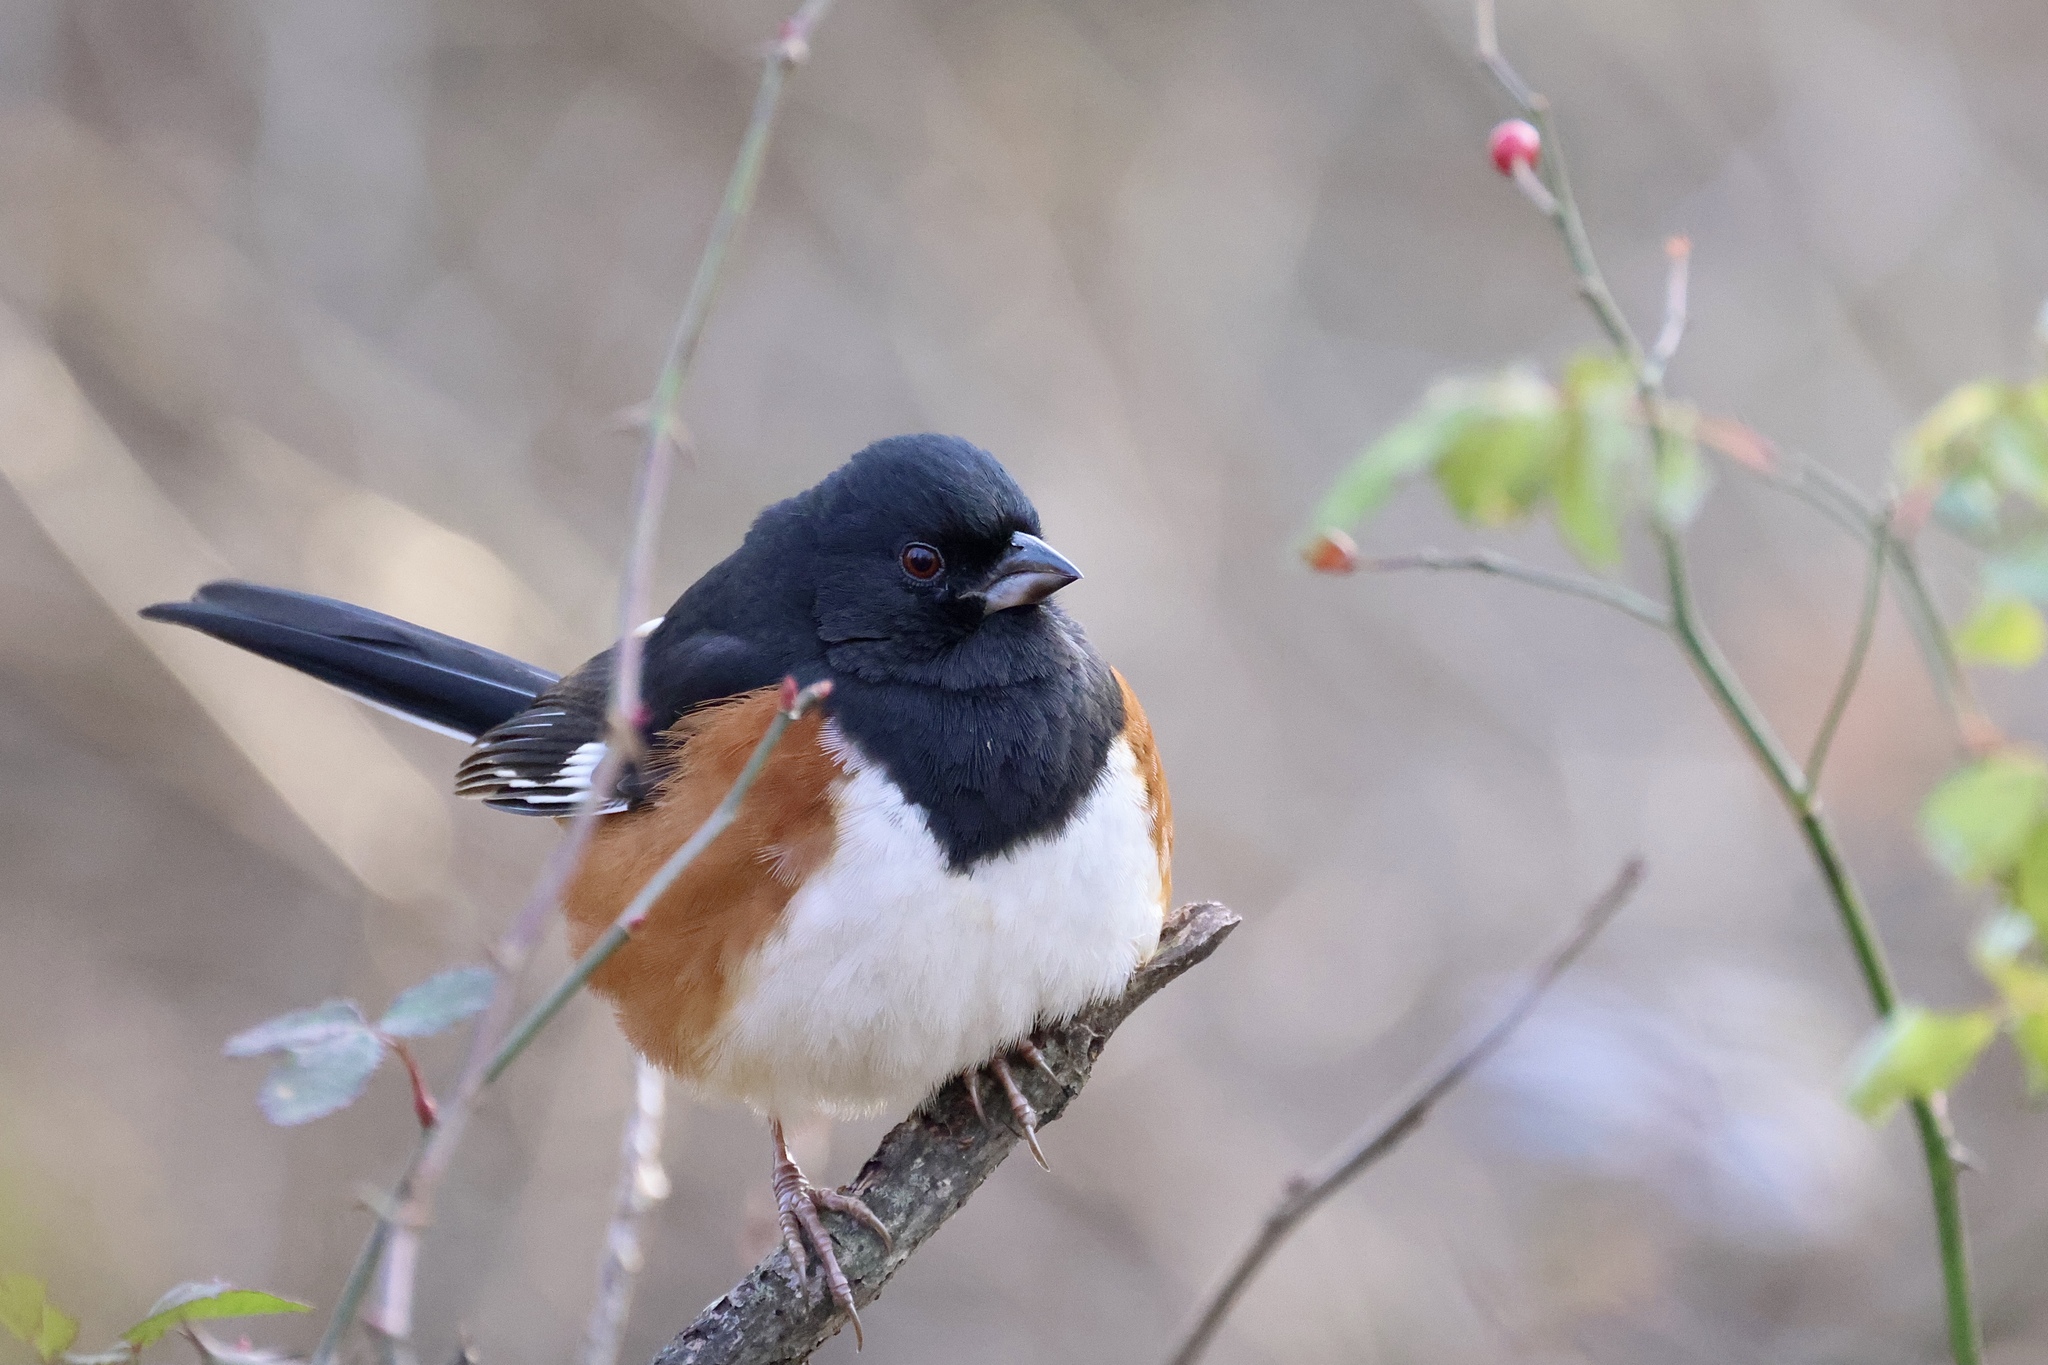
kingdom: Animalia
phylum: Chordata
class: Aves
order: Passeriformes
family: Passerellidae
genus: Pipilo
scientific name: Pipilo erythrophthalmus
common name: Eastern towhee
